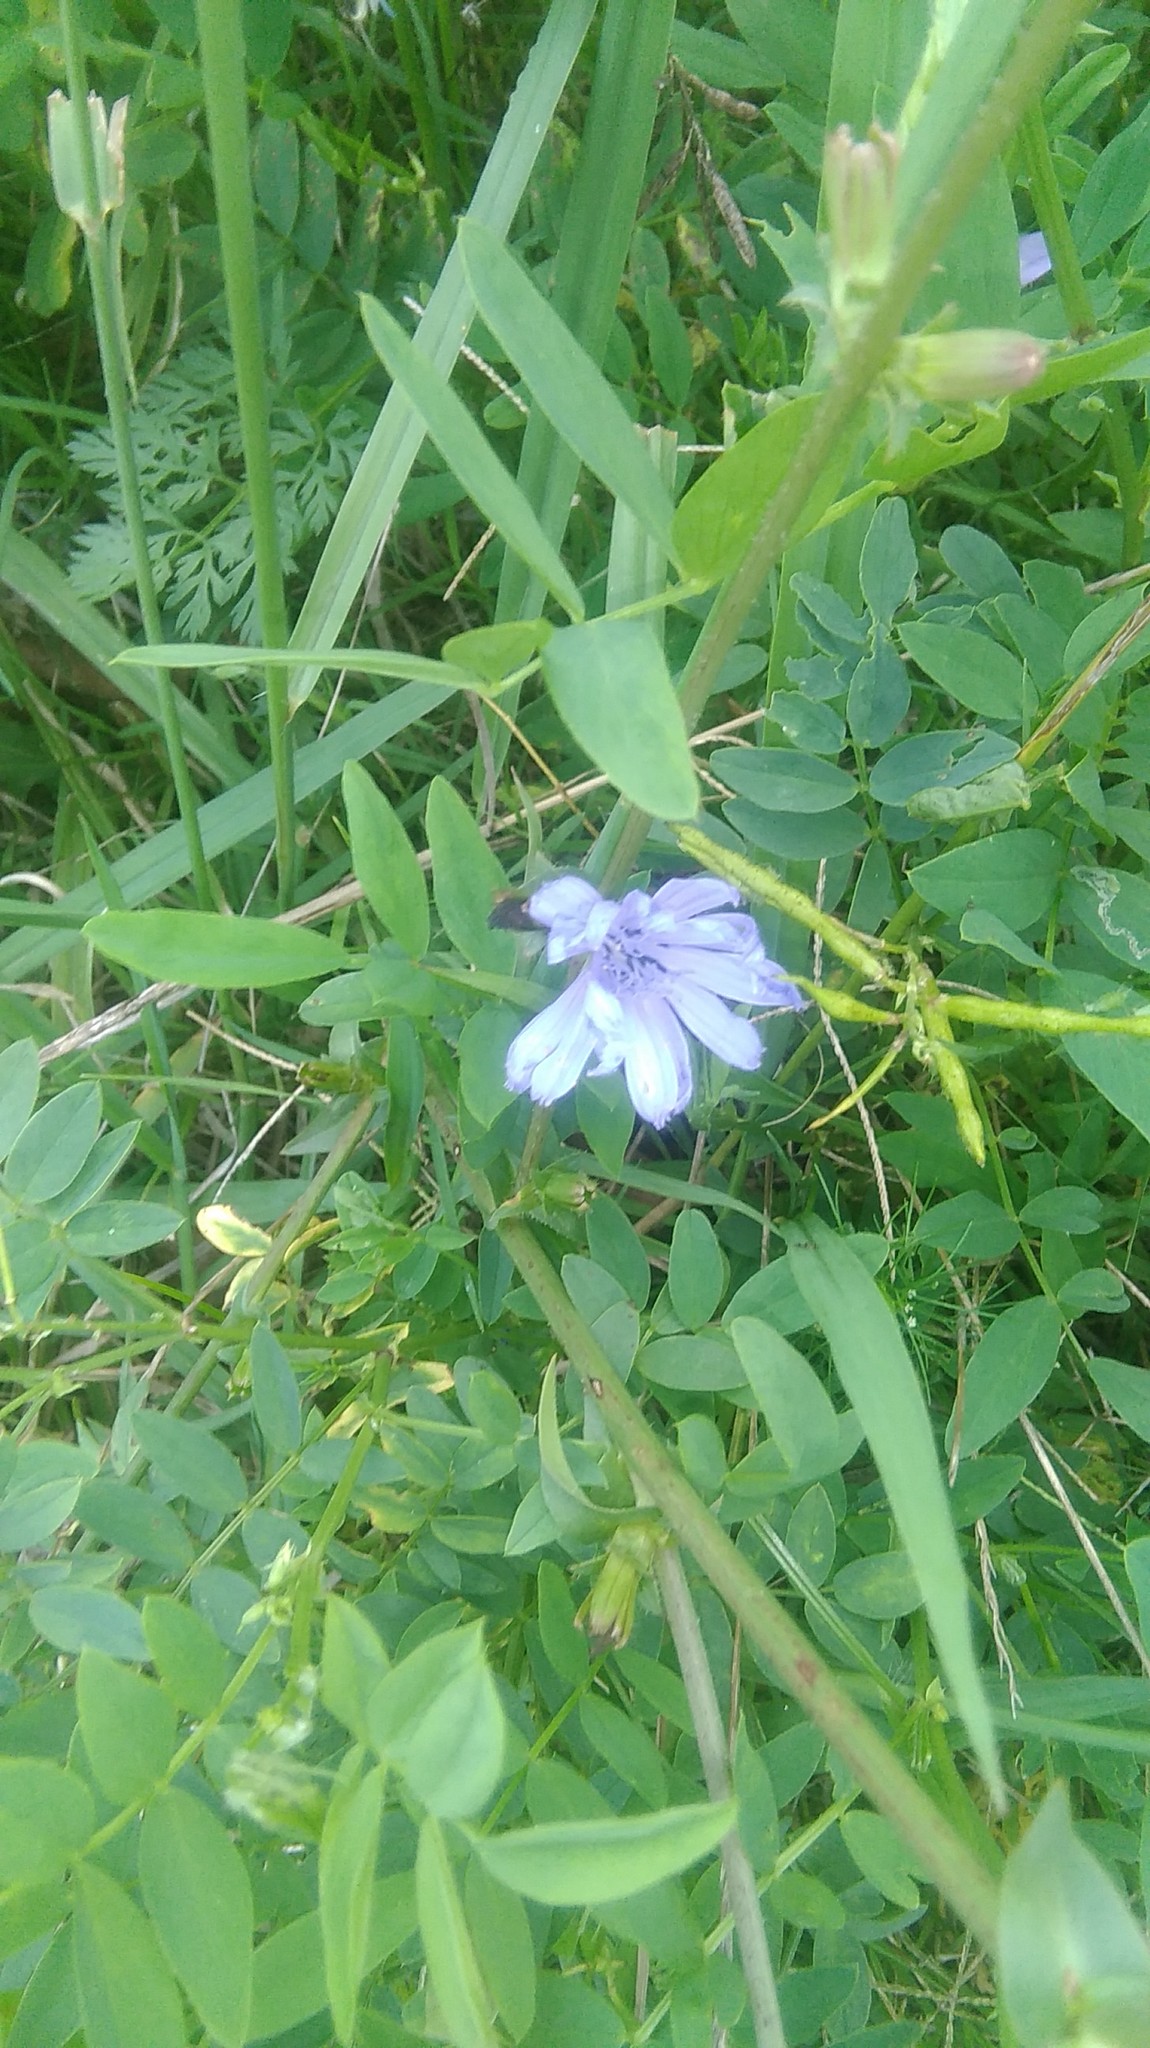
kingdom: Plantae
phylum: Tracheophyta
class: Magnoliopsida
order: Asterales
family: Asteraceae
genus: Cichorium
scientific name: Cichorium intybus
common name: Chicory
